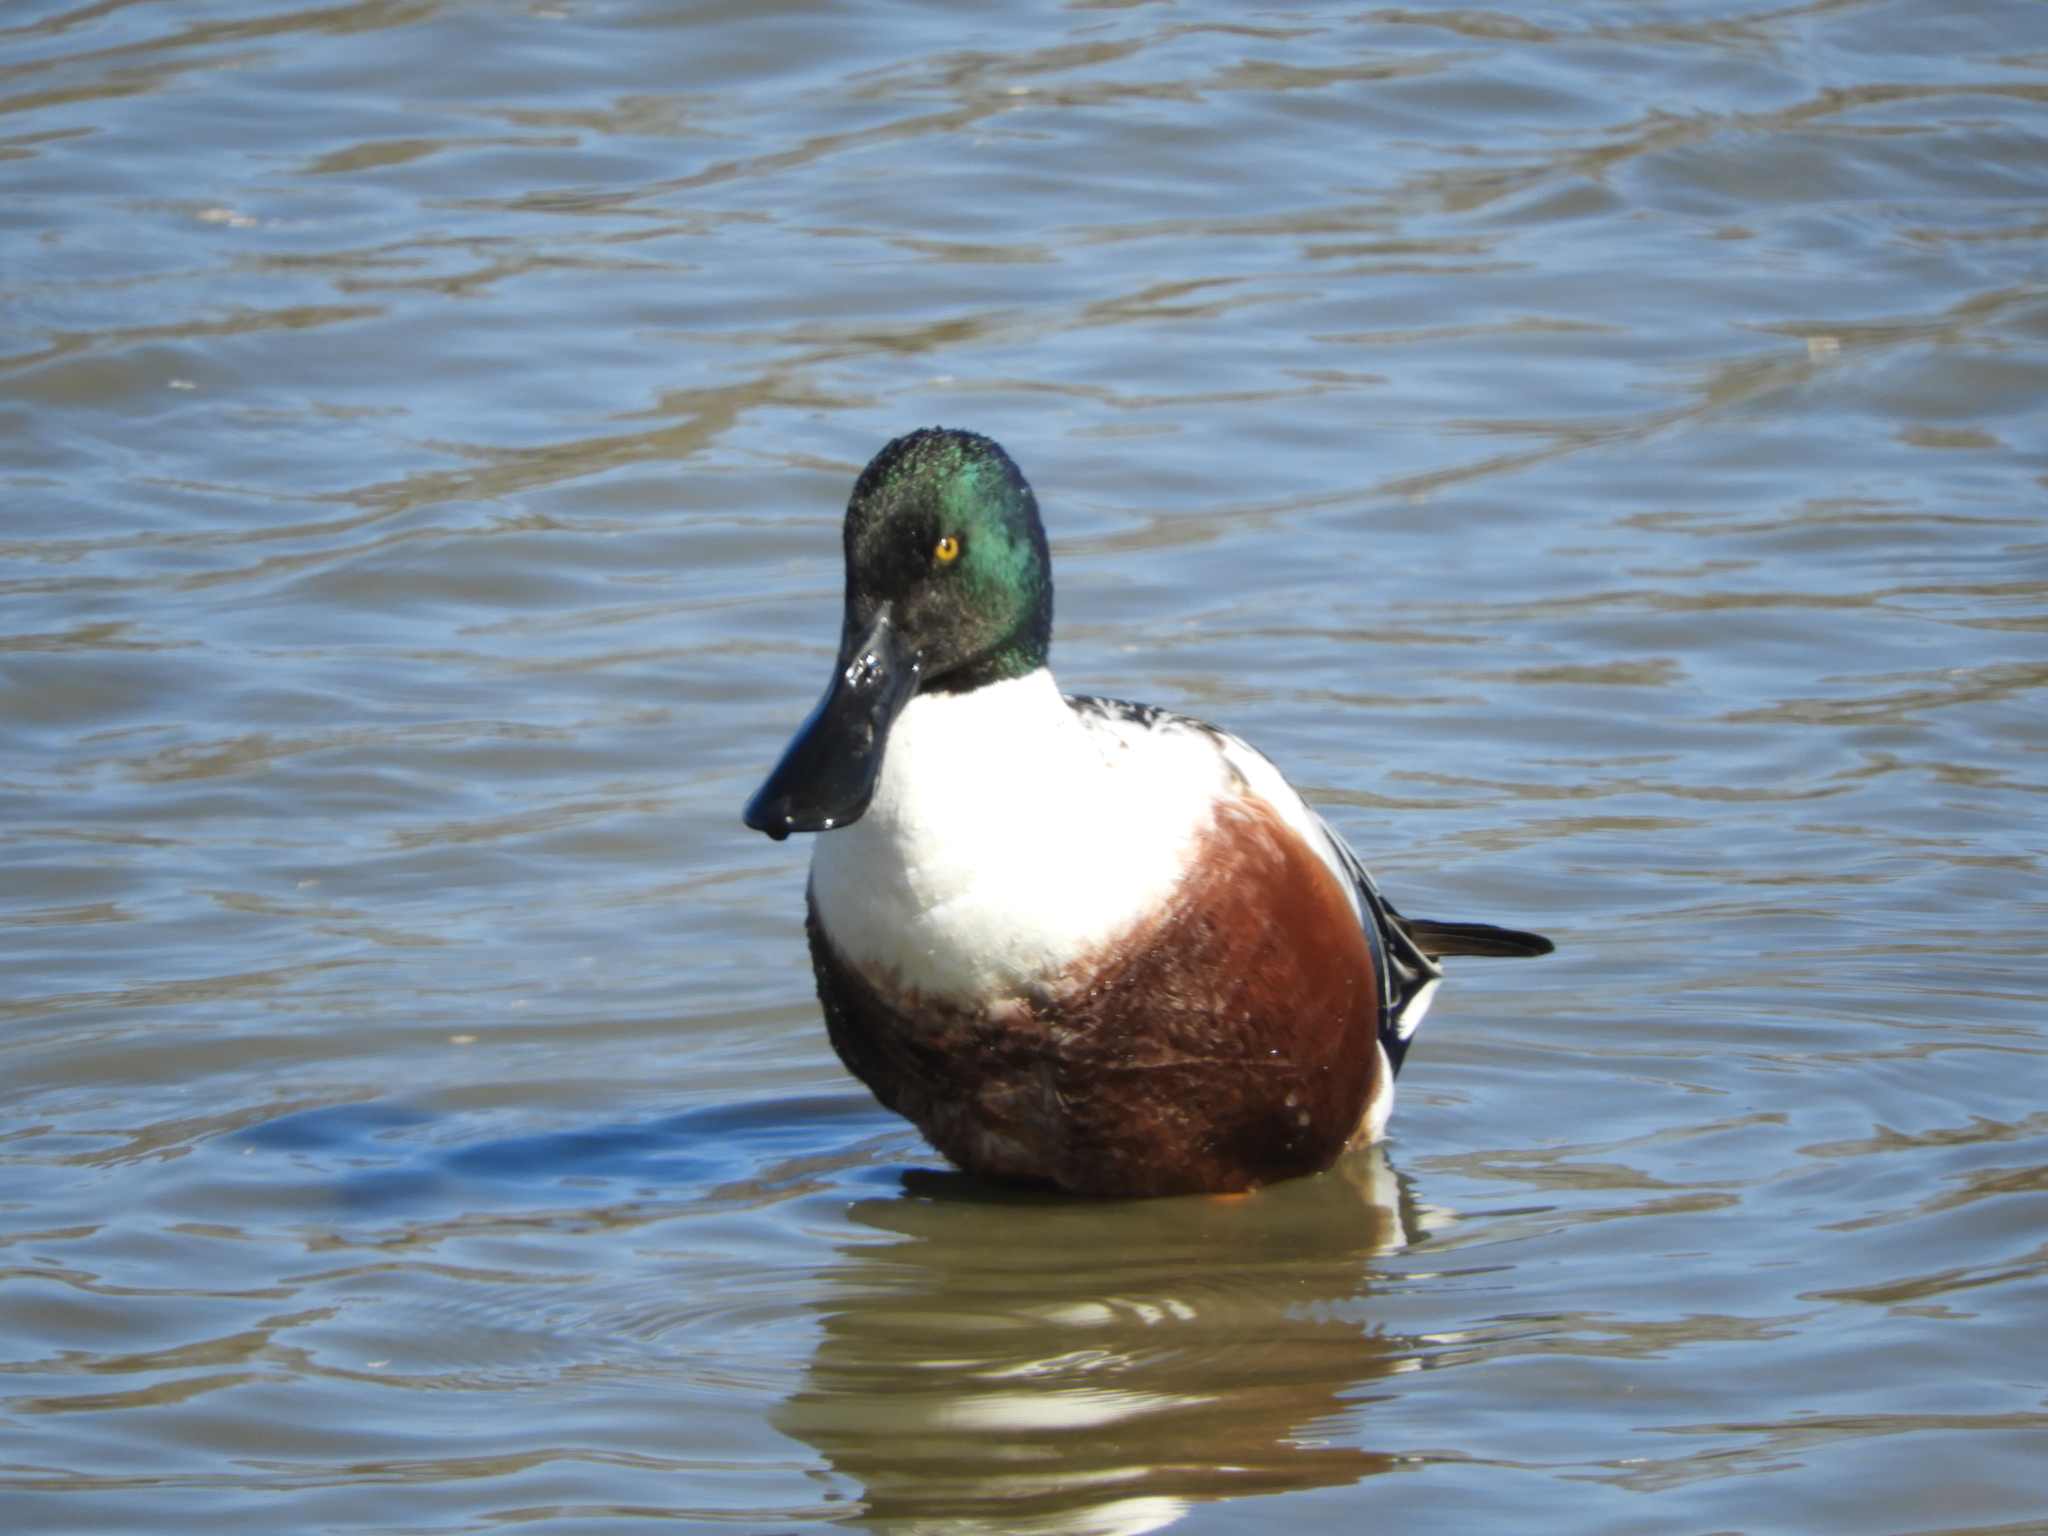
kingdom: Animalia
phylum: Chordata
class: Aves
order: Anseriformes
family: Anatidae
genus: Spatula
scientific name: Spatula clypeata
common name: Northern shoveler
